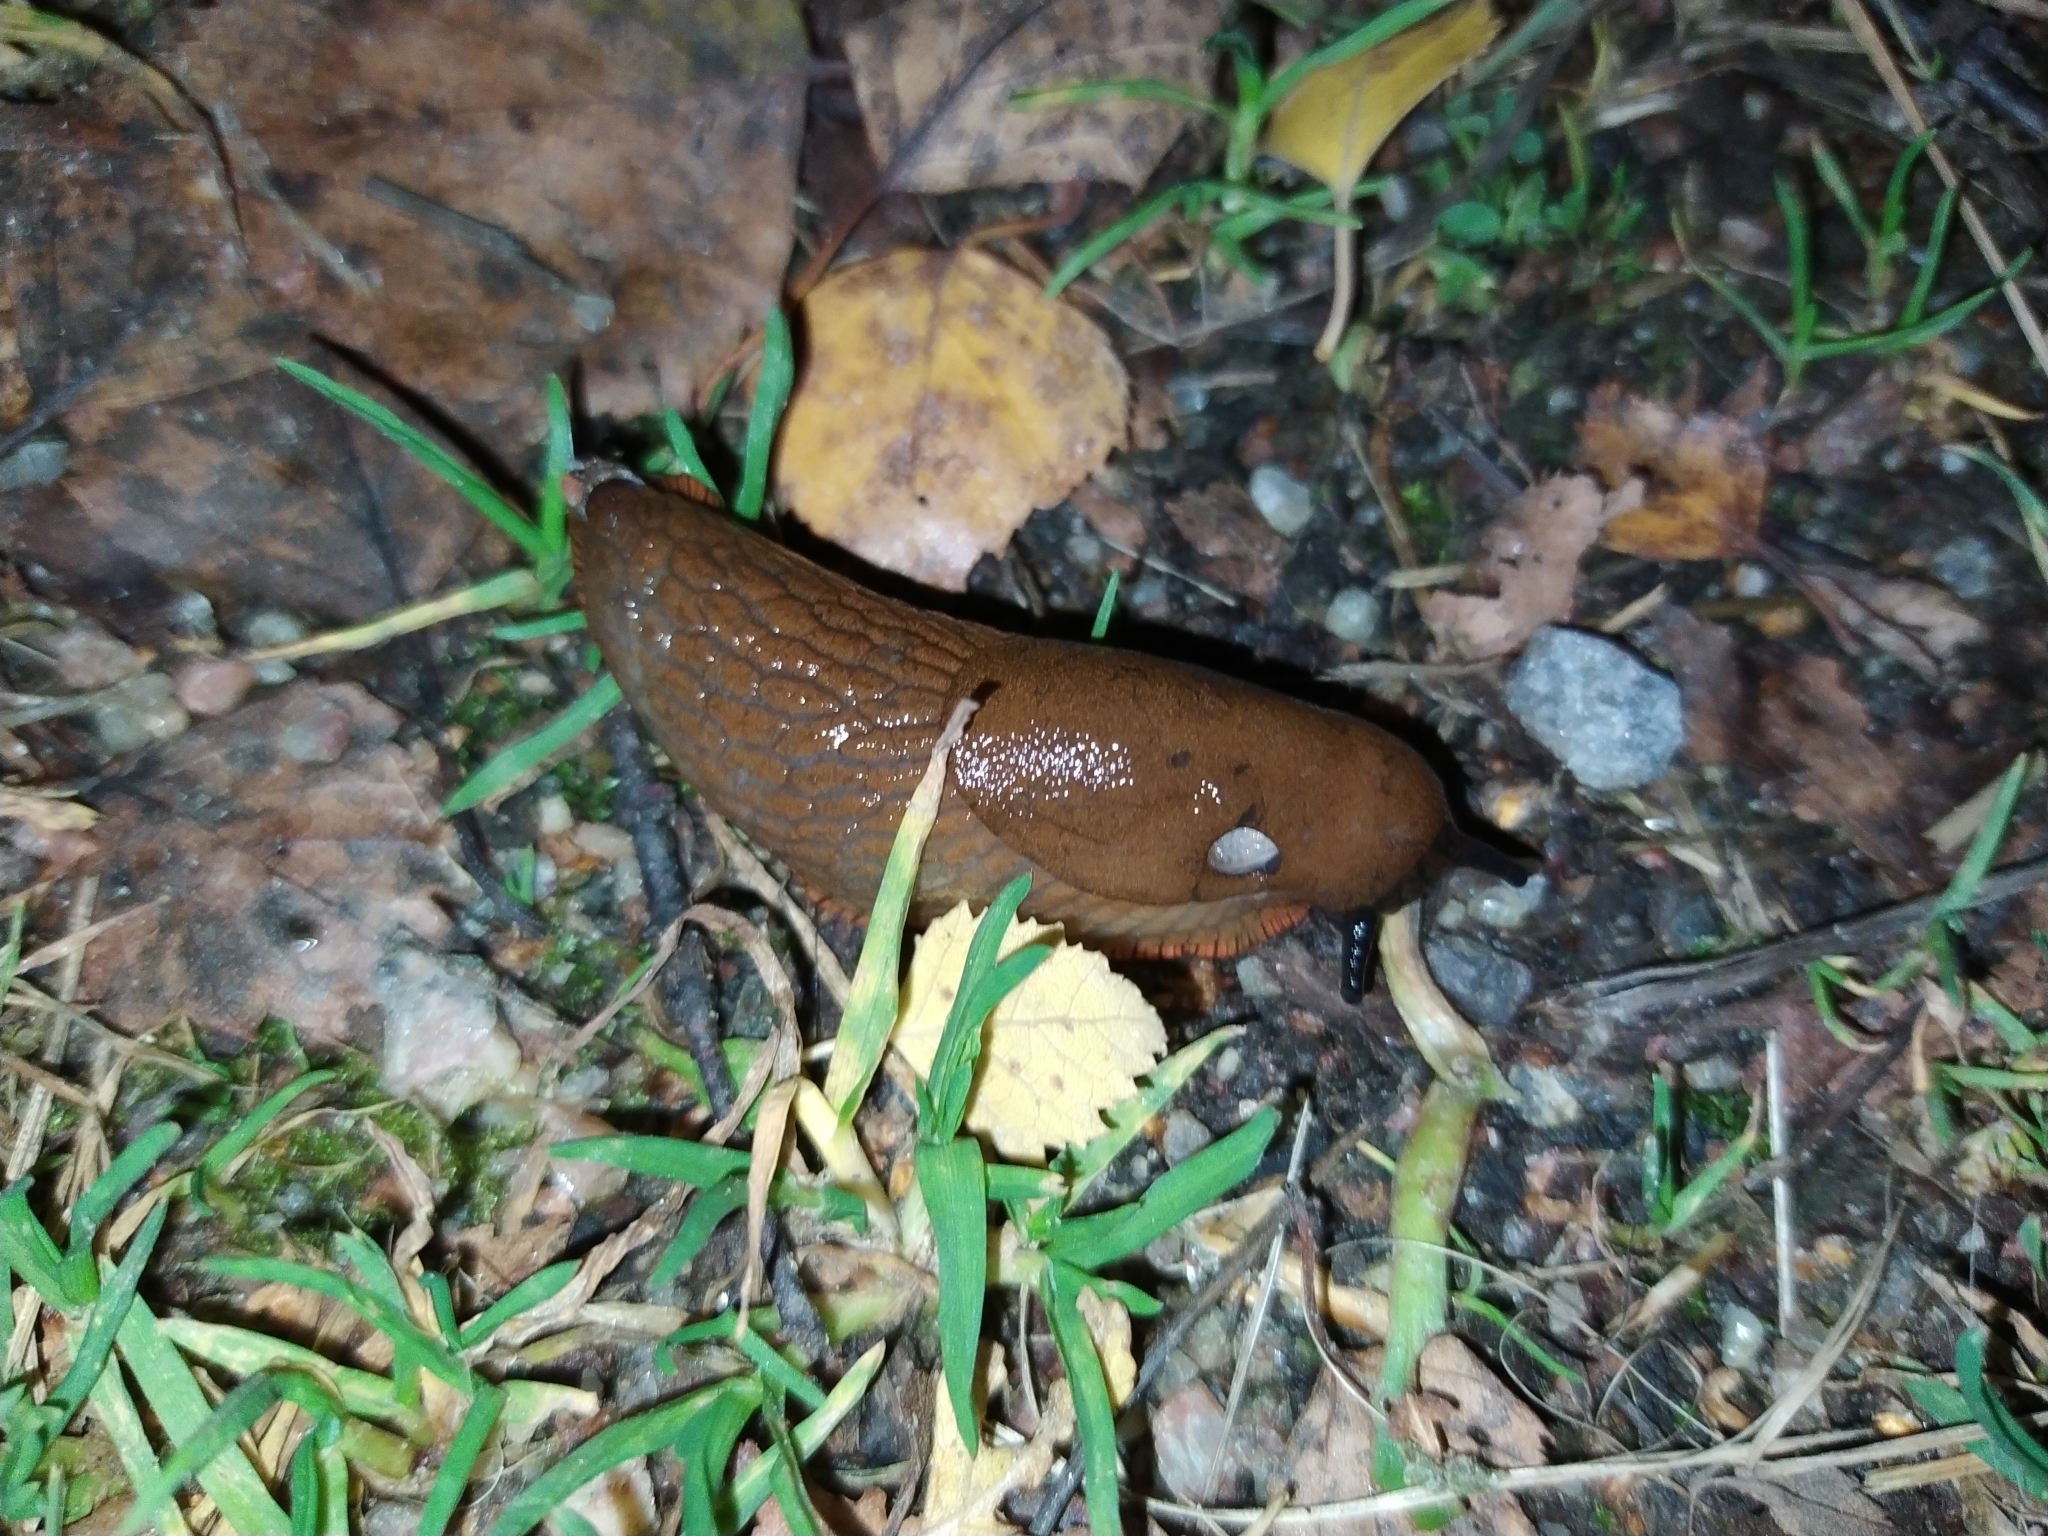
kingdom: Animalia
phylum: Mollusca
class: Gastropoda
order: Stylommatophora
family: Arionidae
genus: Arion
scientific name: Arion vulgaris
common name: Lusitanian slug
